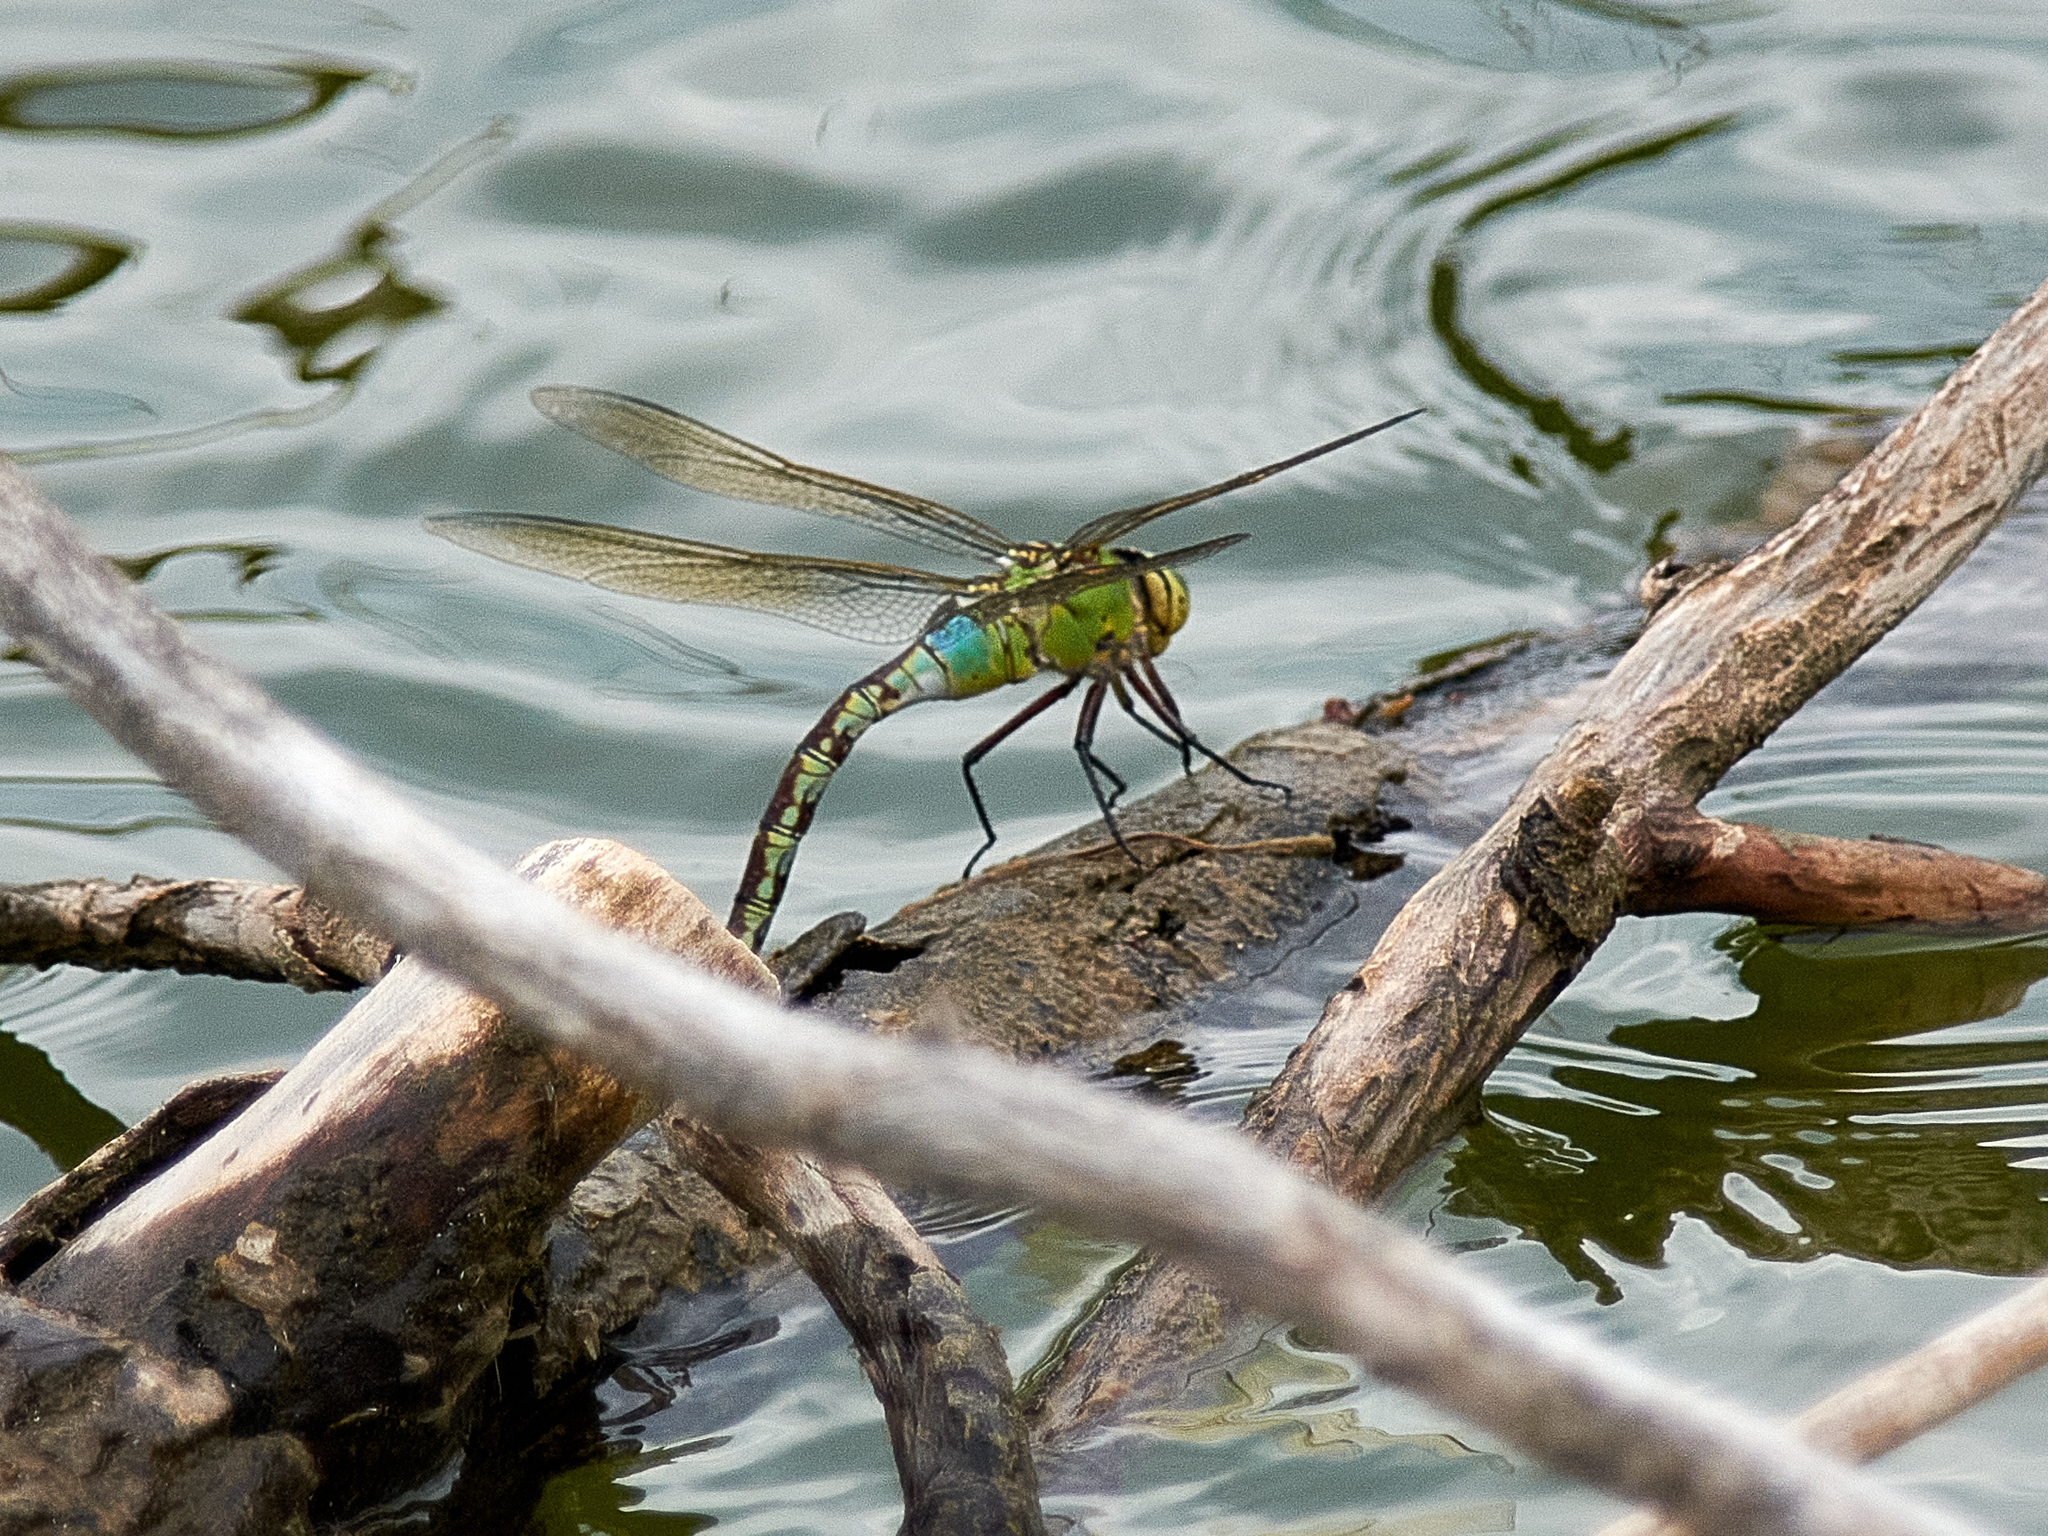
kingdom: Animalia
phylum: Arthropoda
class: Insecta
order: Odonata
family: Aeshnidae
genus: Anax
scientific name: Anax imperator
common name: Emperor dragonfly
